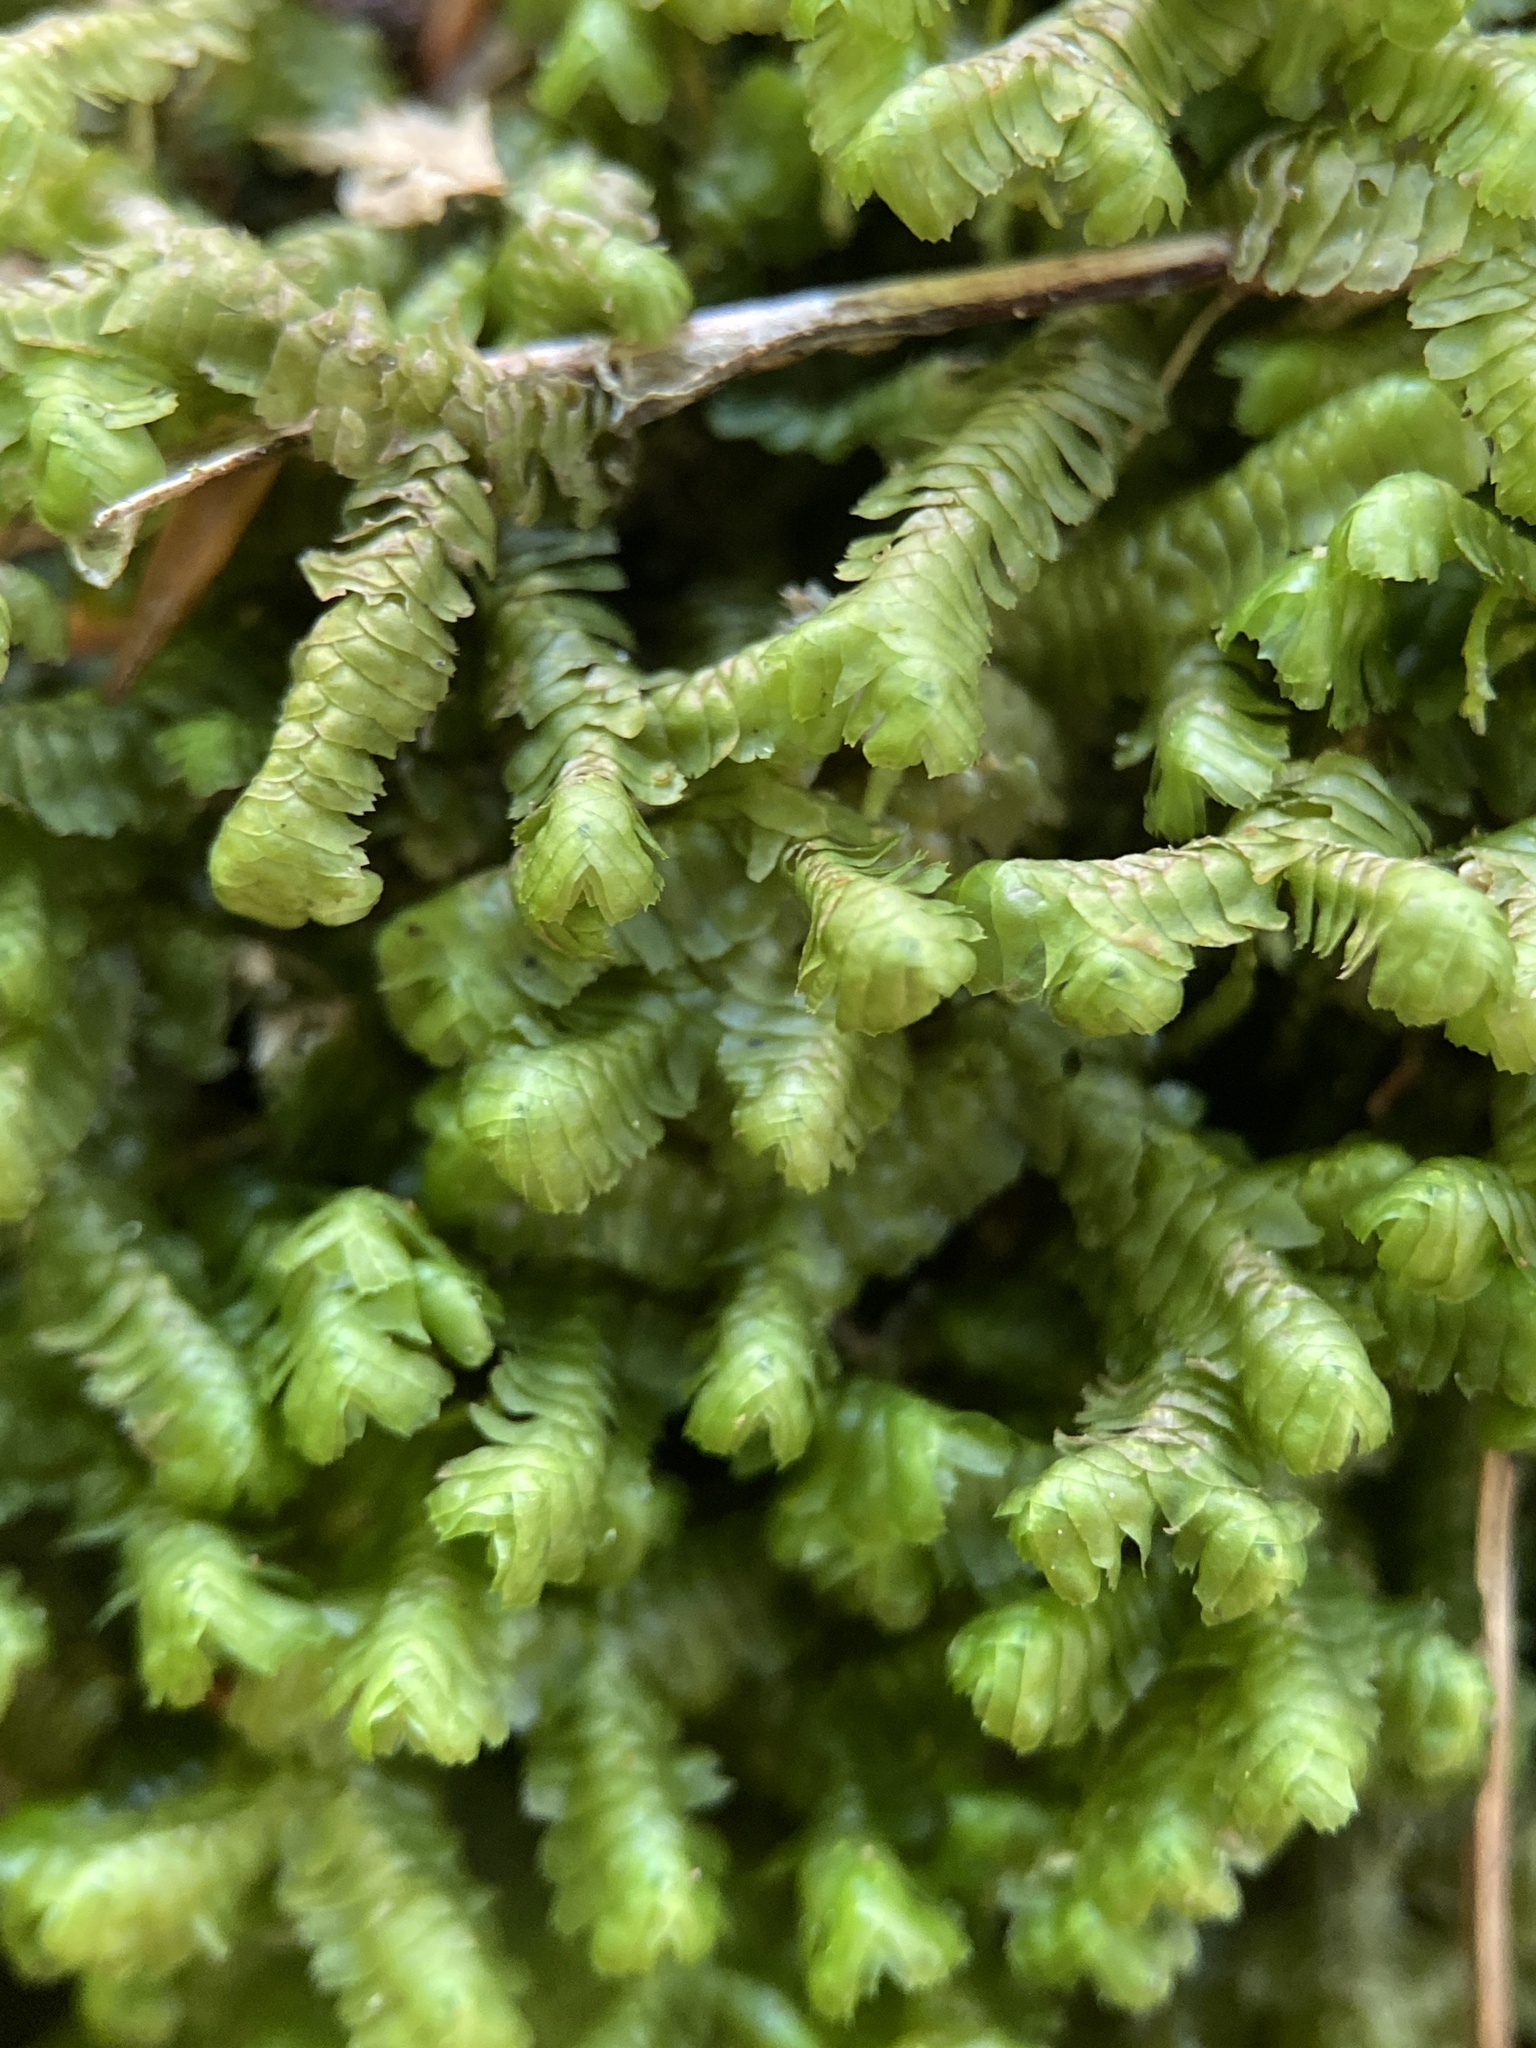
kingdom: Plantae
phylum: Marchantiophyta
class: Jungermanniopsida
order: Jungermanniales
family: Lepidoziaceae
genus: Bazzania
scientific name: Bazzania trilobata
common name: Three-lobed whipwort
